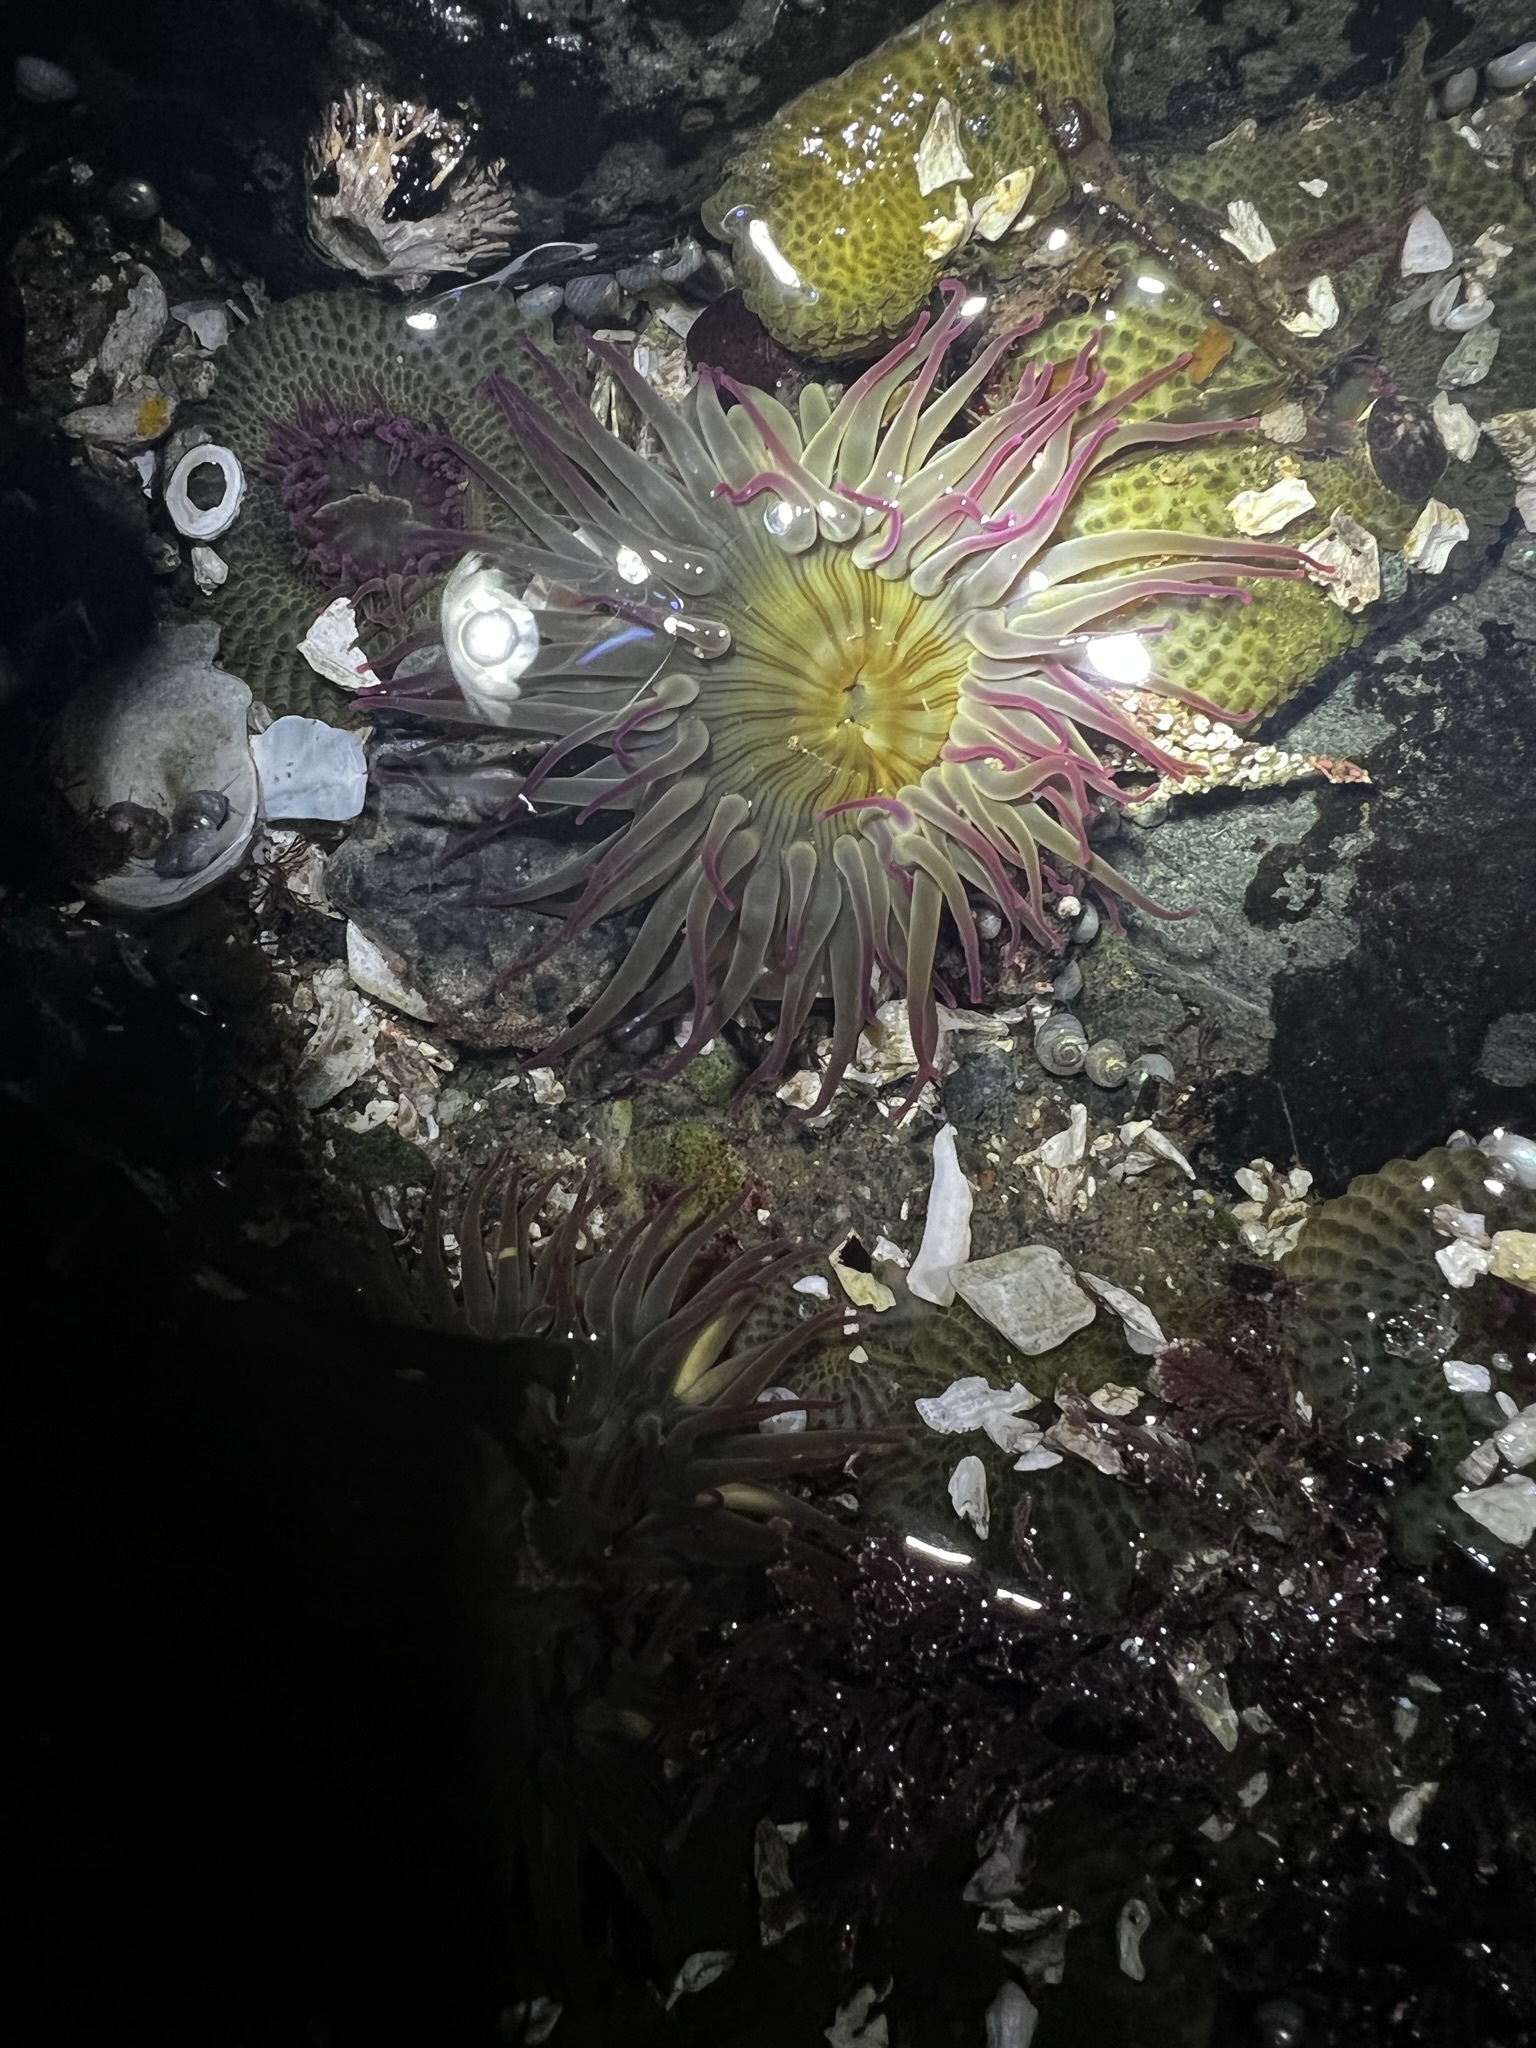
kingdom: Animalia
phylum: Cnidaria
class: Anthozoa
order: Actiniaria
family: Actiniidae
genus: Anthopleura
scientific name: Anthopleura elegantissima
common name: Clonal anemone
